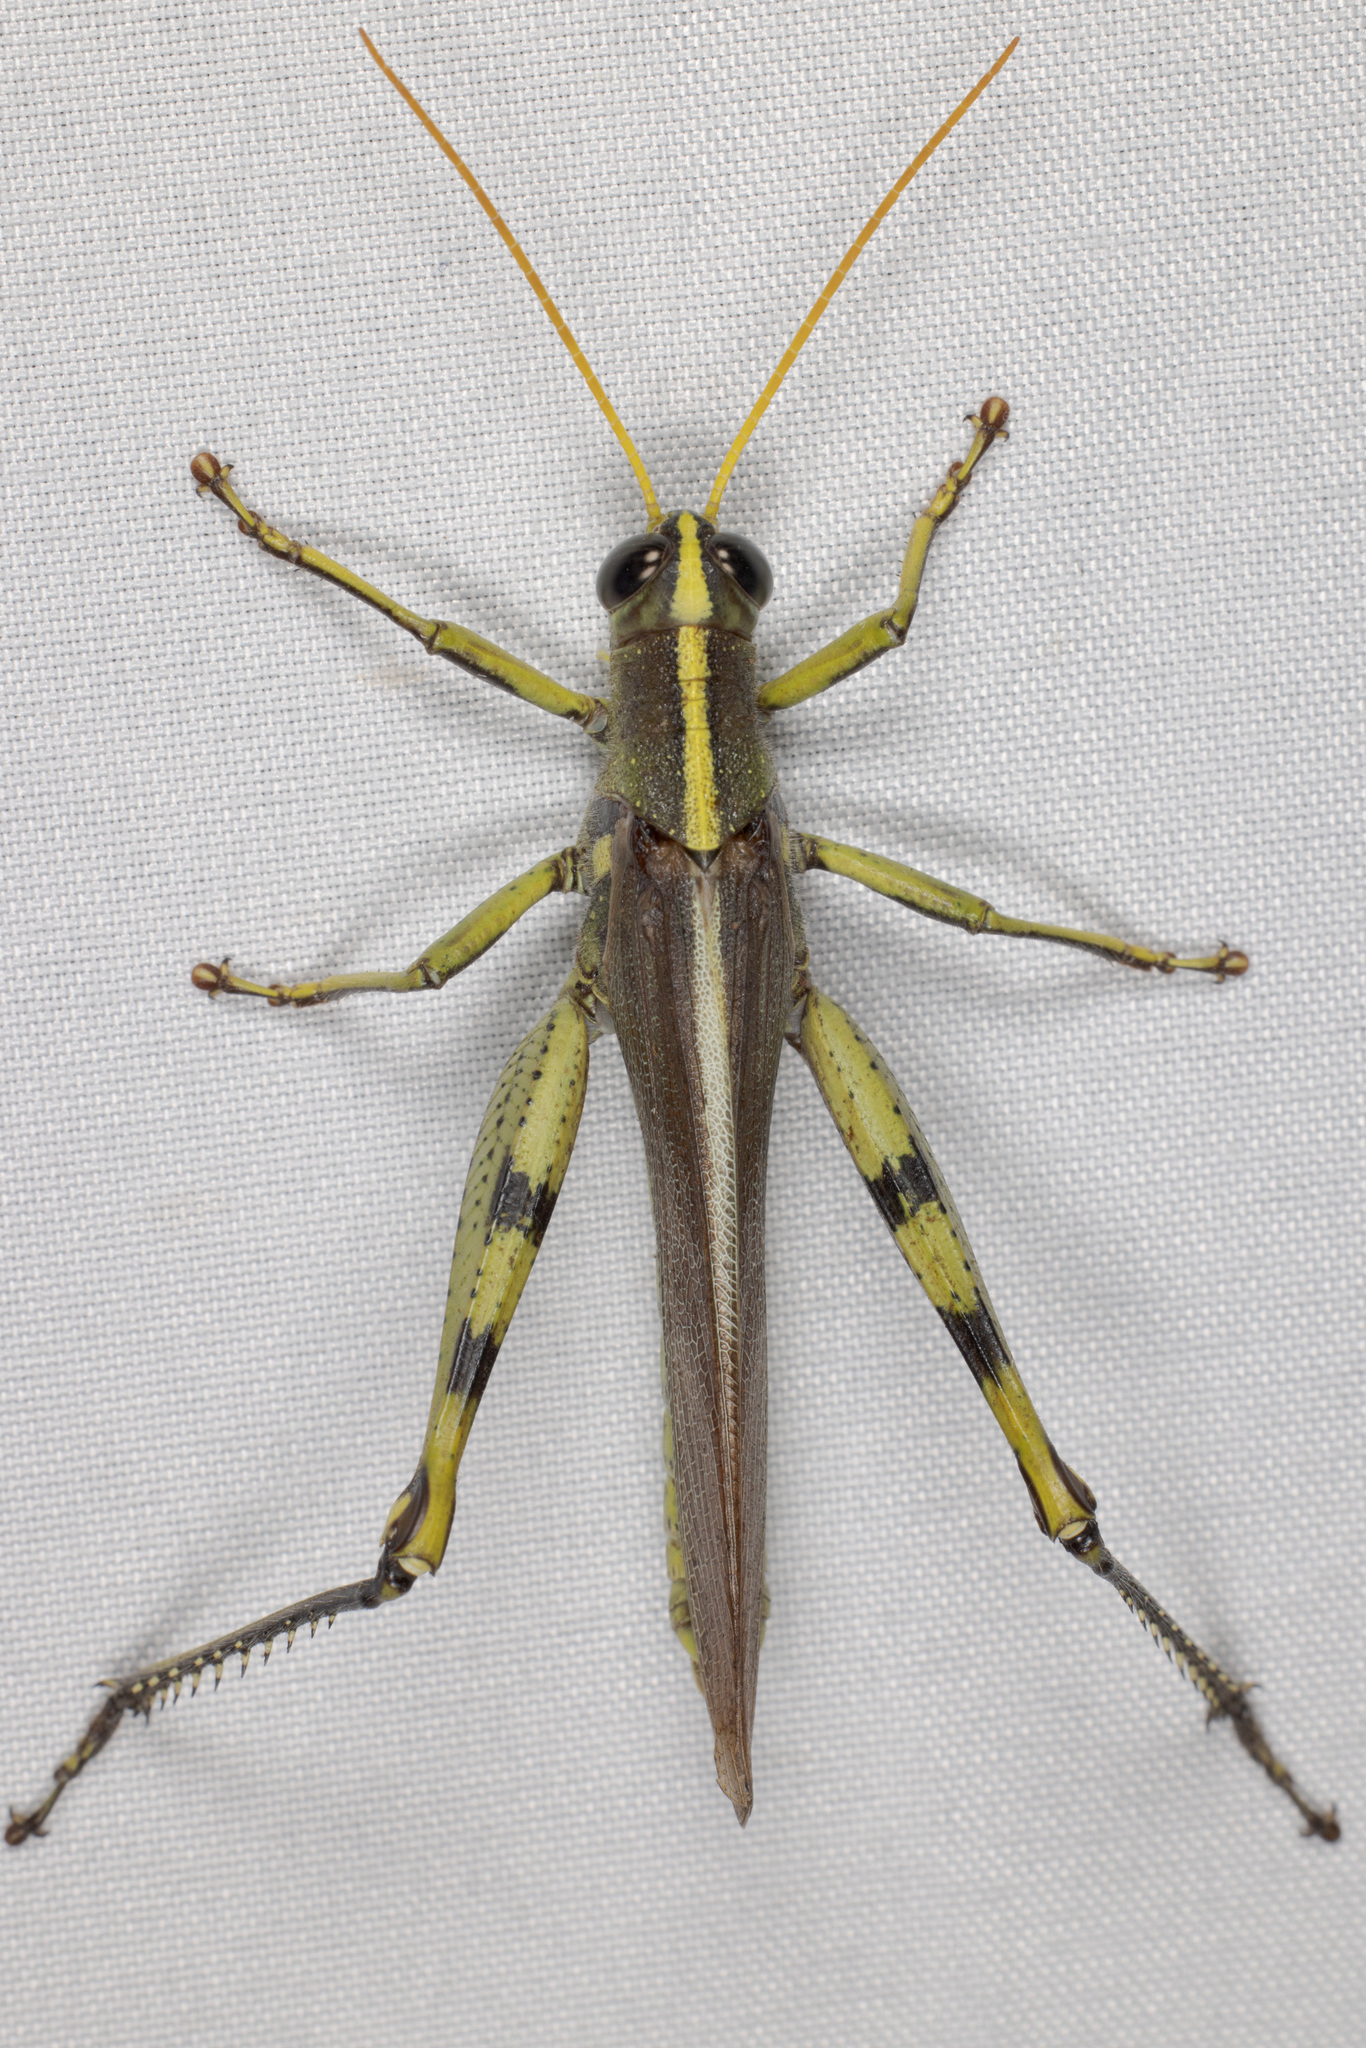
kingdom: Animalia
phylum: Arthropoda
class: Insecta
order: Orthoptera
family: Acrididae
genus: Schistocerca
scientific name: Schistocerca obscura
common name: Obscure bird grasshopper
